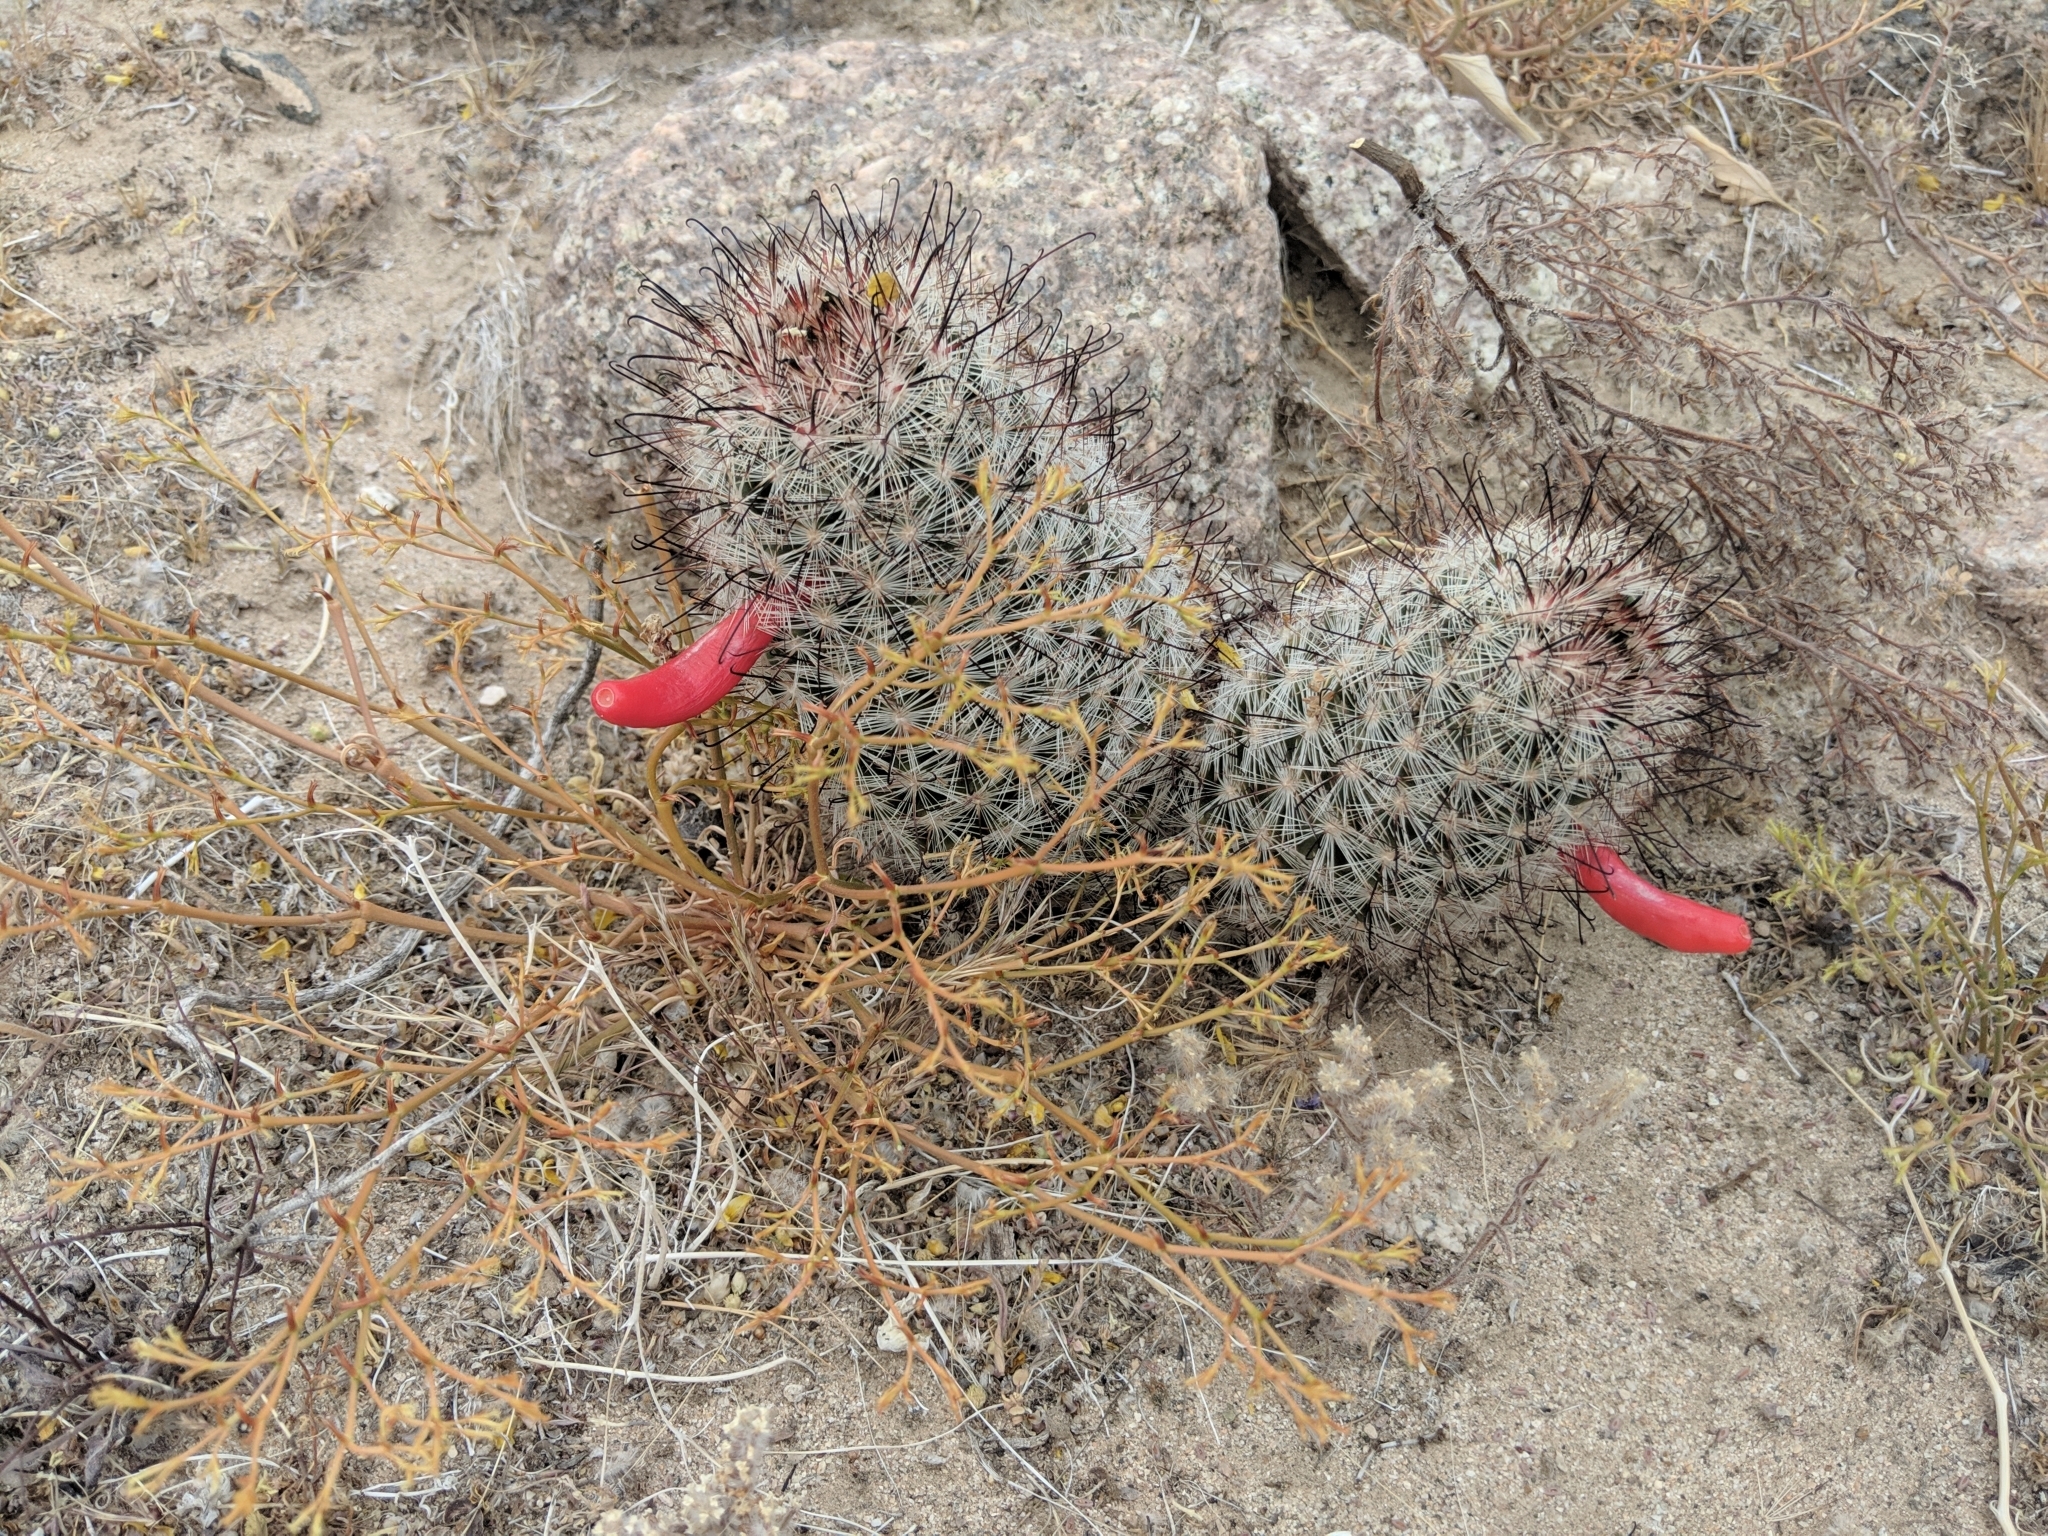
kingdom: Plantae
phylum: Tracheophyta
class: Magnoliopsida
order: Caryophyllales
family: Cactaceae
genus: Cochemiea
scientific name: Cochemiea tetrancistra
